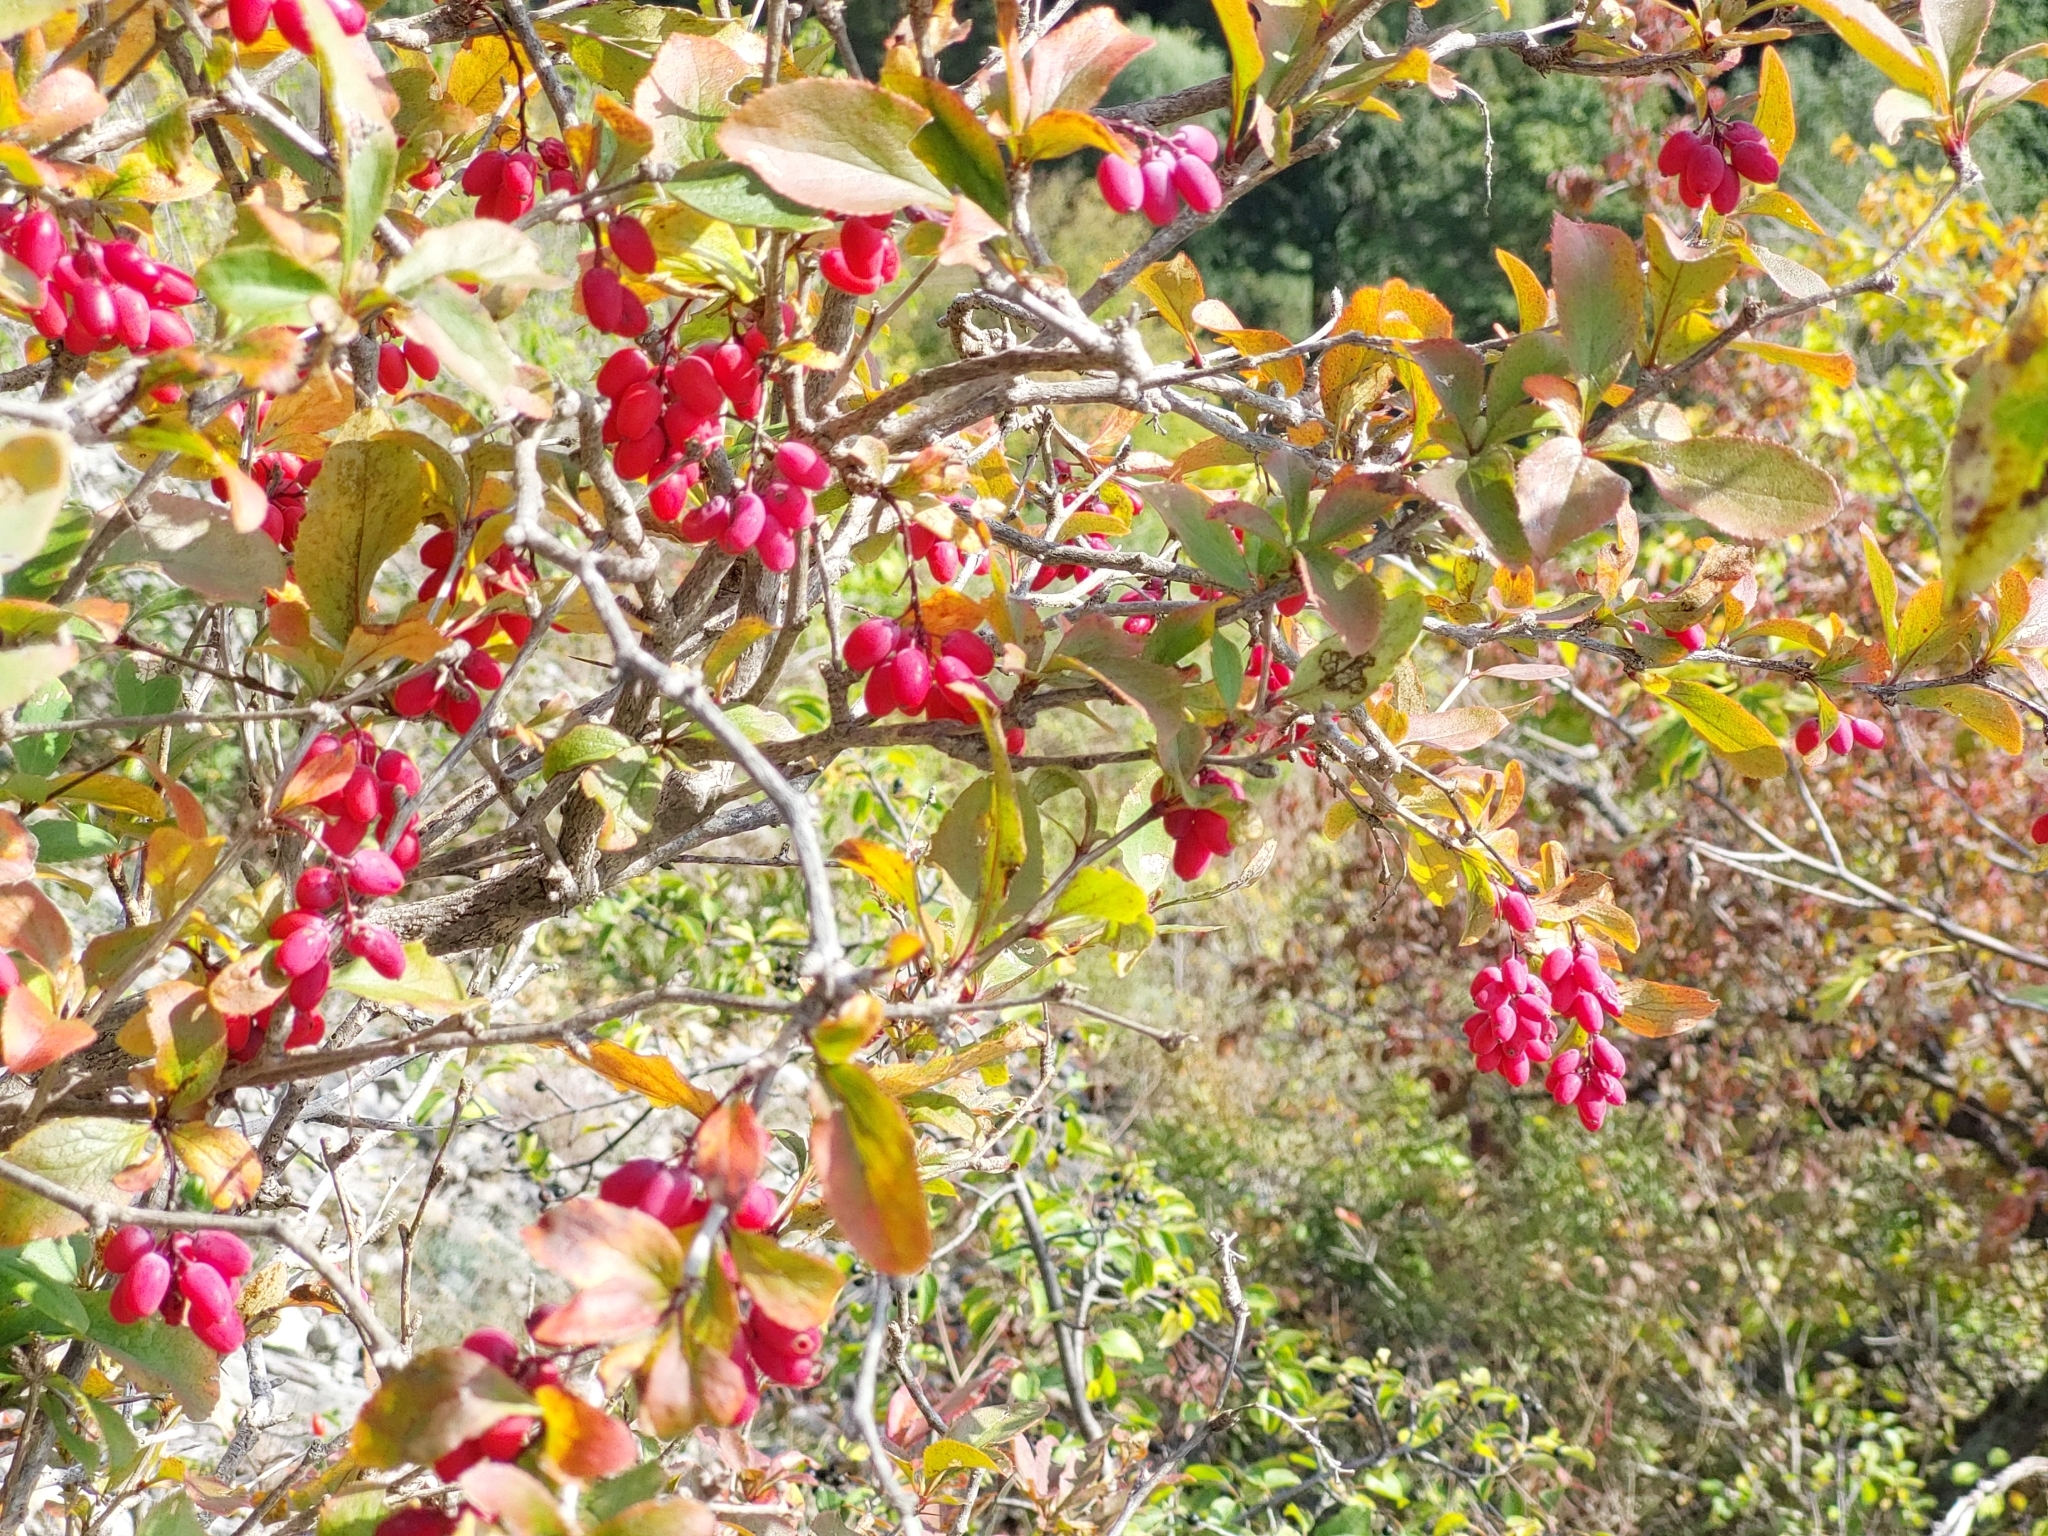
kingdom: Plantae
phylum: Tracheophyta
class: Magnoliopsida
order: Ranunculales
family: Berberidaceae
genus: Berberis
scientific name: Berberis vulgaris
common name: Barberry
